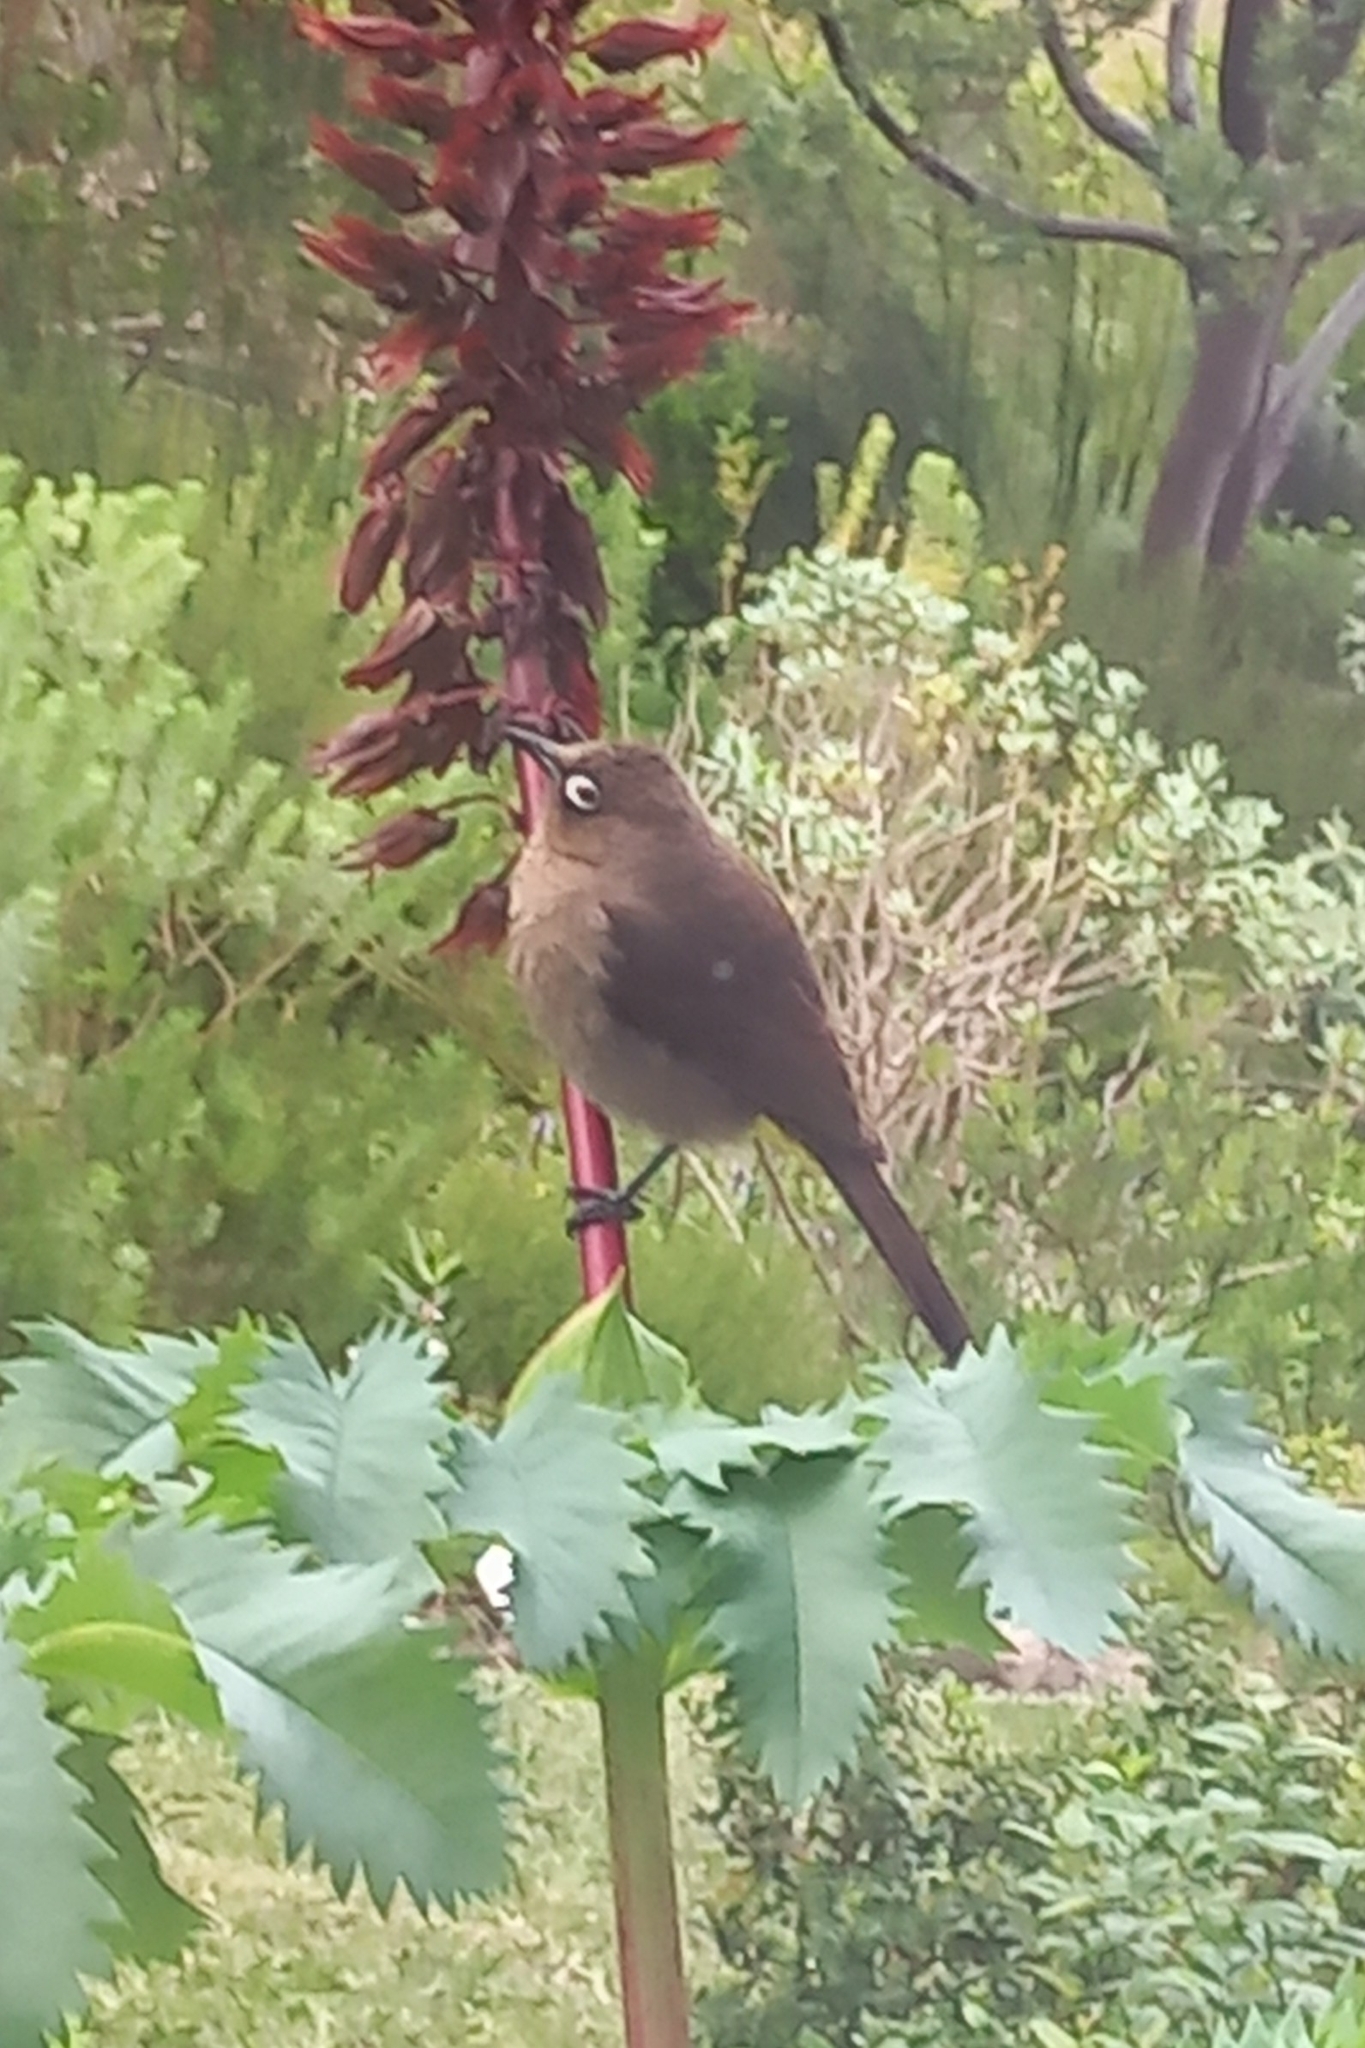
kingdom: Animalia
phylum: Chordata
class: Aves
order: Passeriformes
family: Pycnonotidae
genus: Pycnonotus
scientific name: Pycnonotus capensis
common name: Cape bulbul
